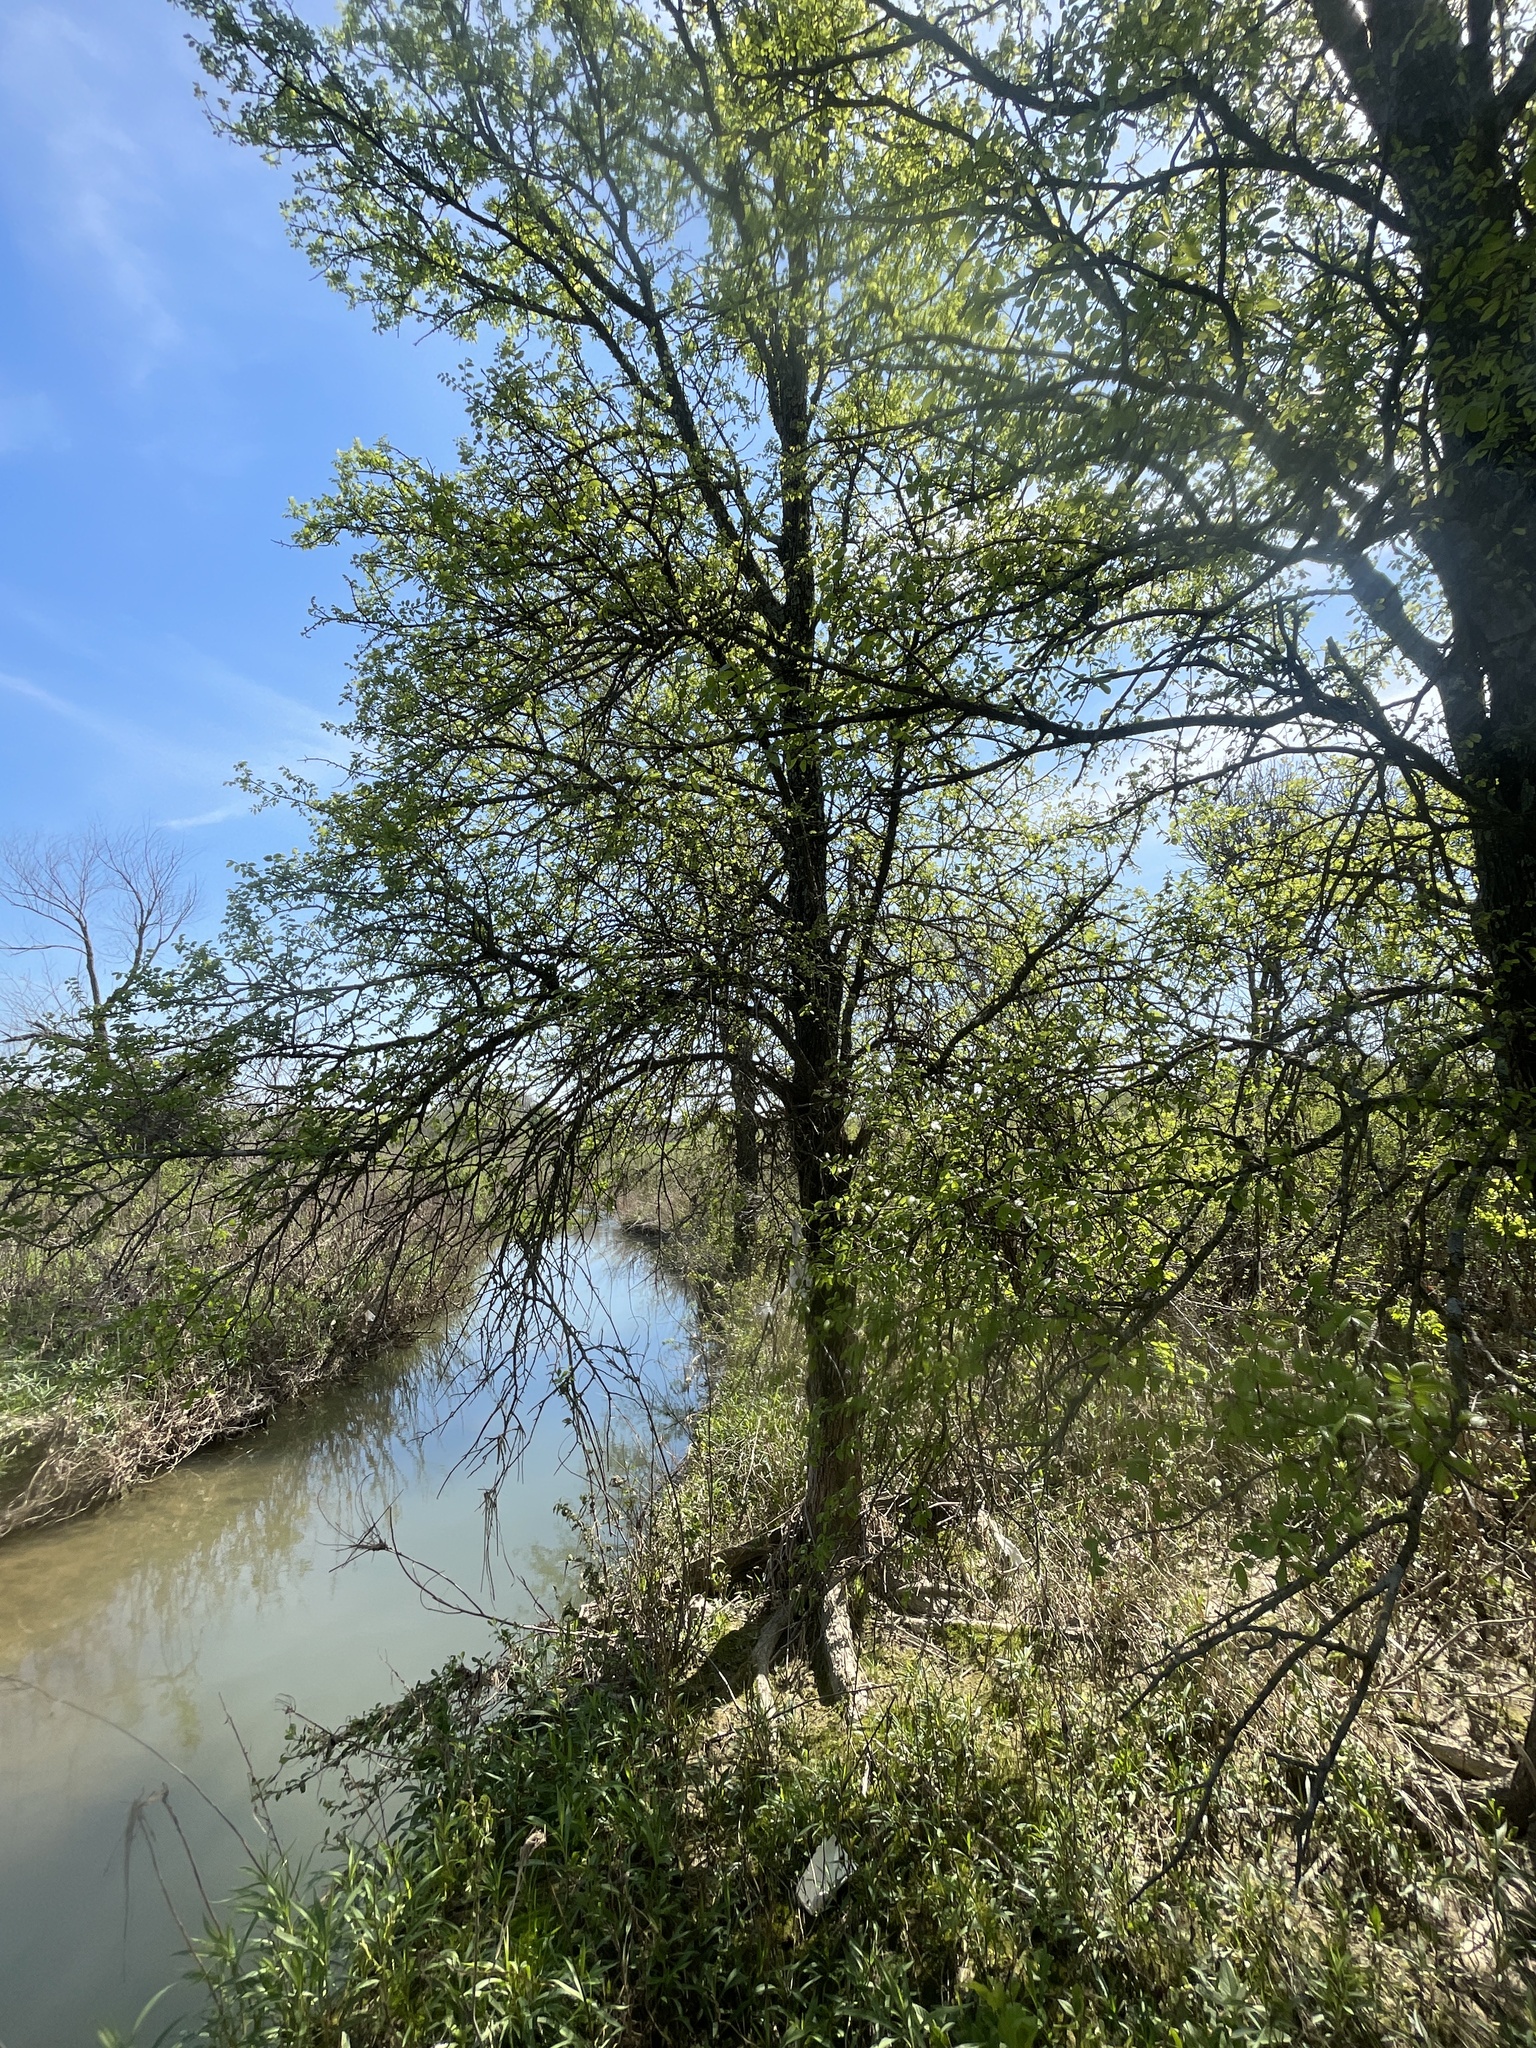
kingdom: Plantae
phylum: Tracheophyta
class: Magnoliopsida
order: Rosales
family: Ulmaceae
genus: Ulmus
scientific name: Ulmus crassifolia
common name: Basket elm
